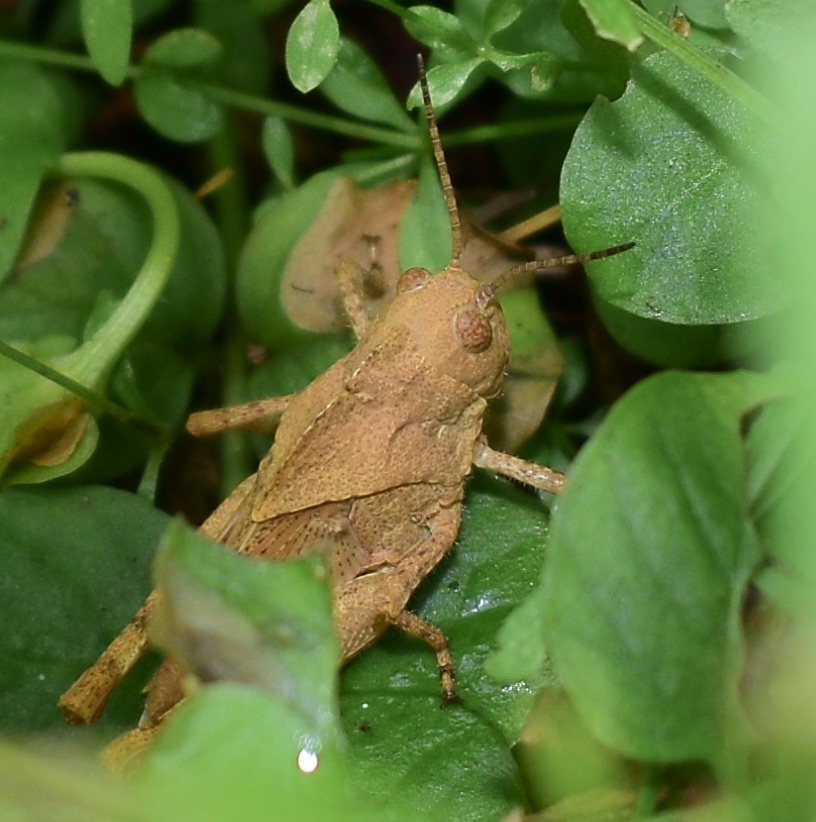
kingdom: Animalia
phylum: Arthropoda
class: Insecta
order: Orthoptera
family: Acrididae
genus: Dissosteira
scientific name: Dissosteira carolina
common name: Carolina grasshopper
